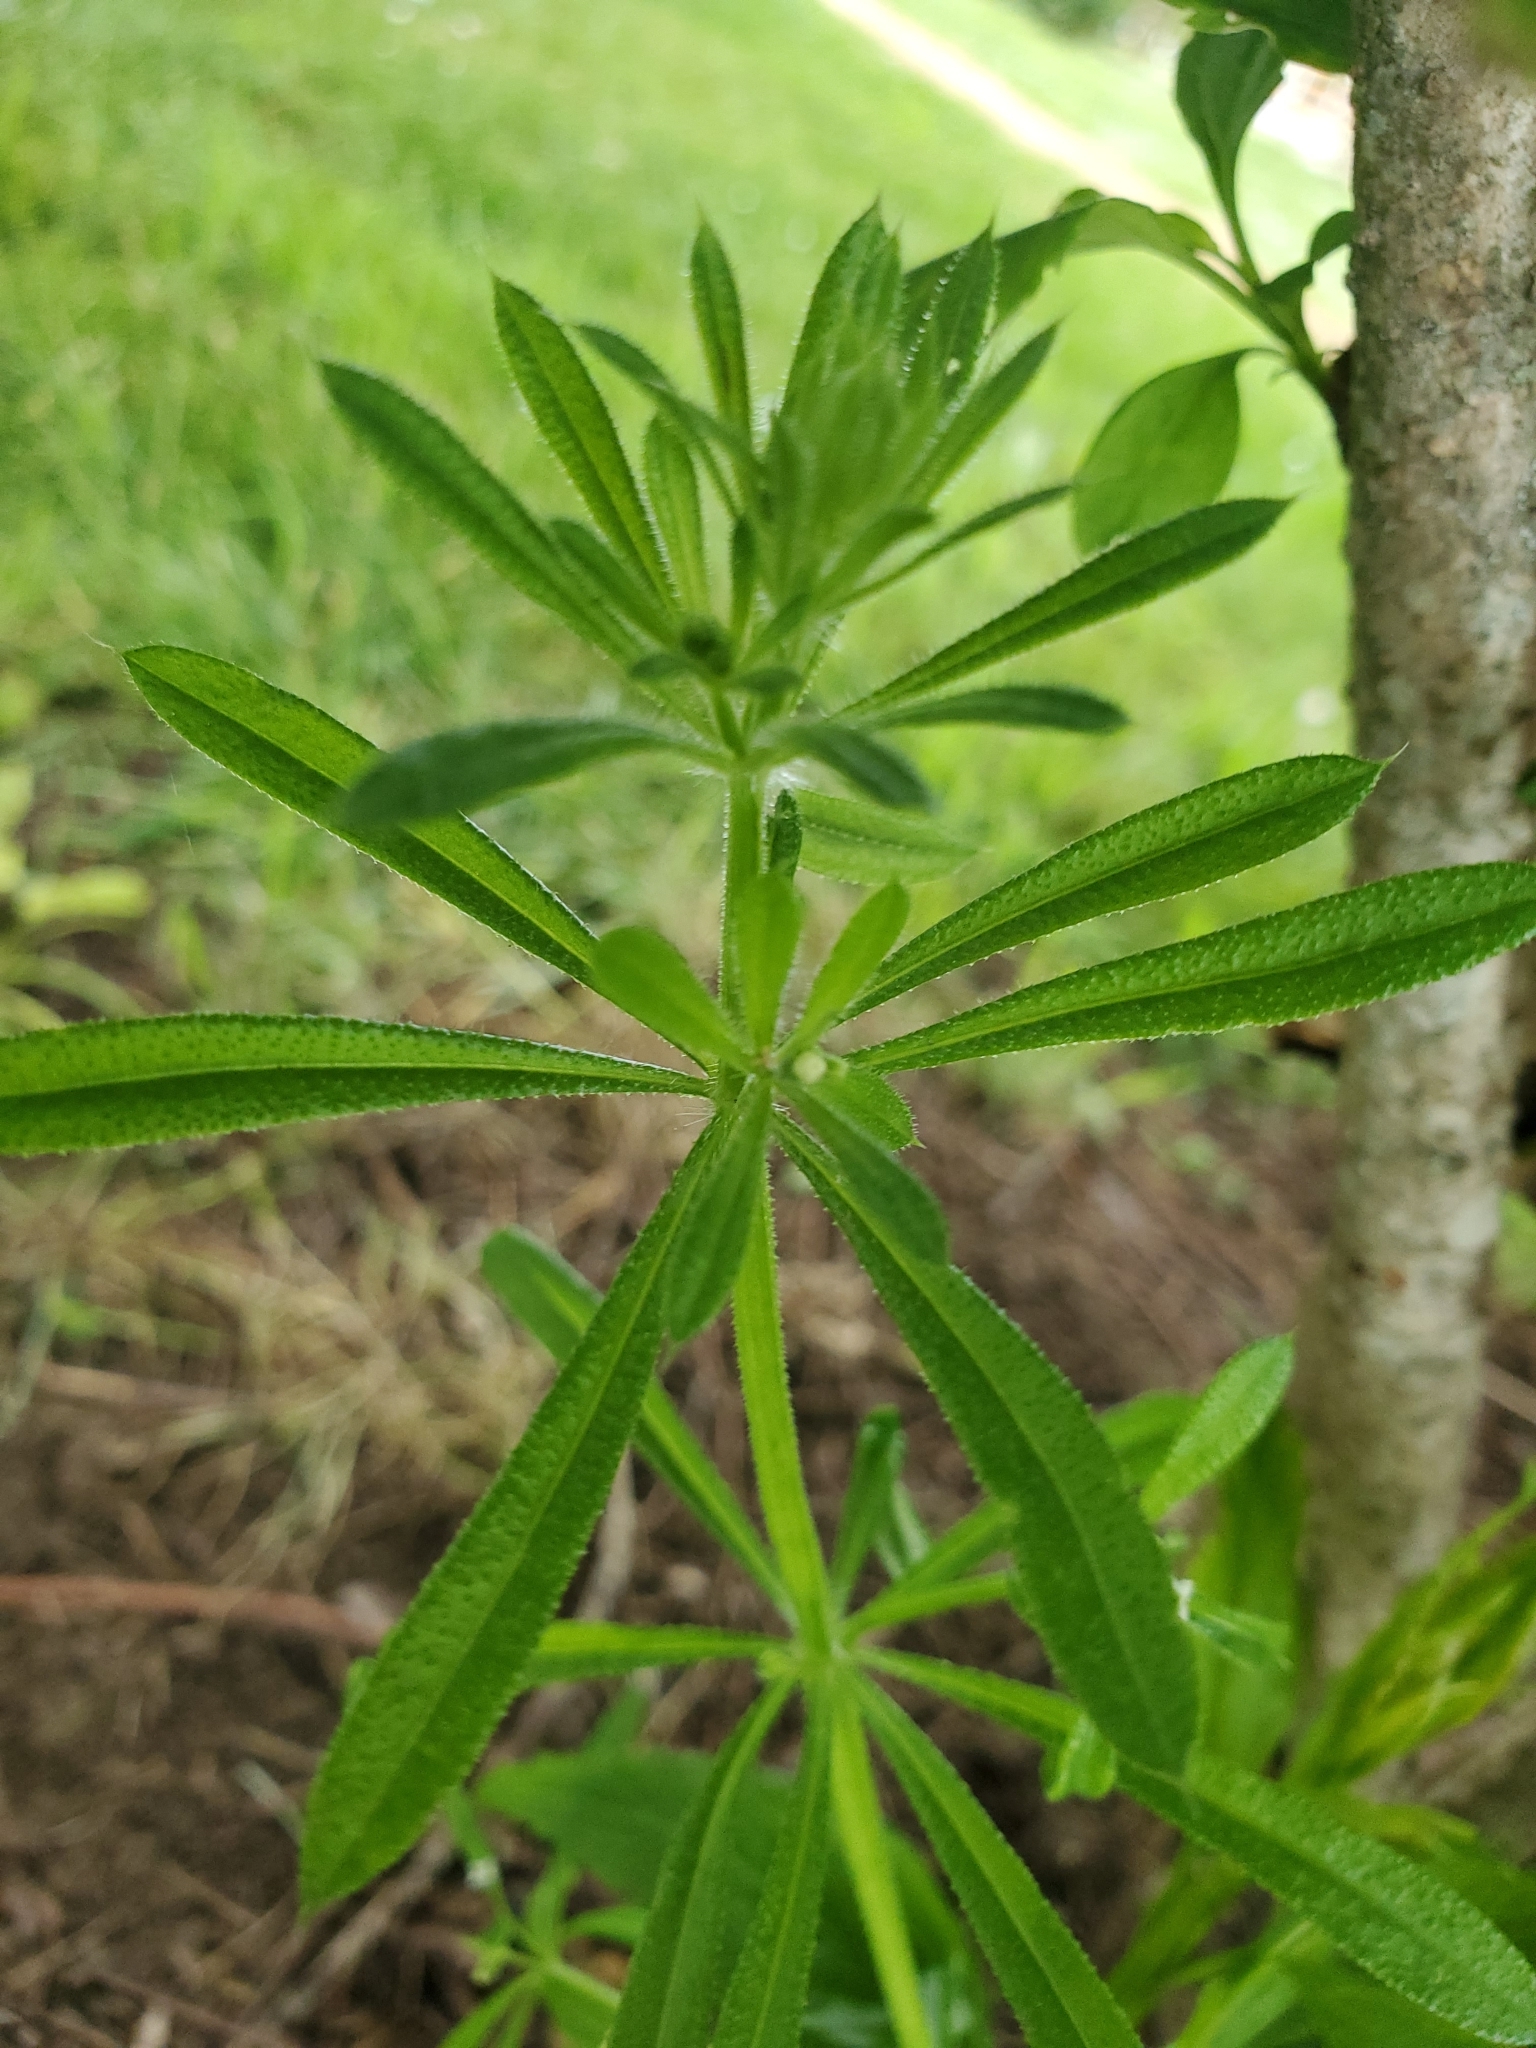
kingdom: Plantae
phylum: Tracheophyta
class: Magnoliopsida
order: Gentianales
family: Rubiaceae
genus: Galium
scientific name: Galium aparine
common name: Cleavers
